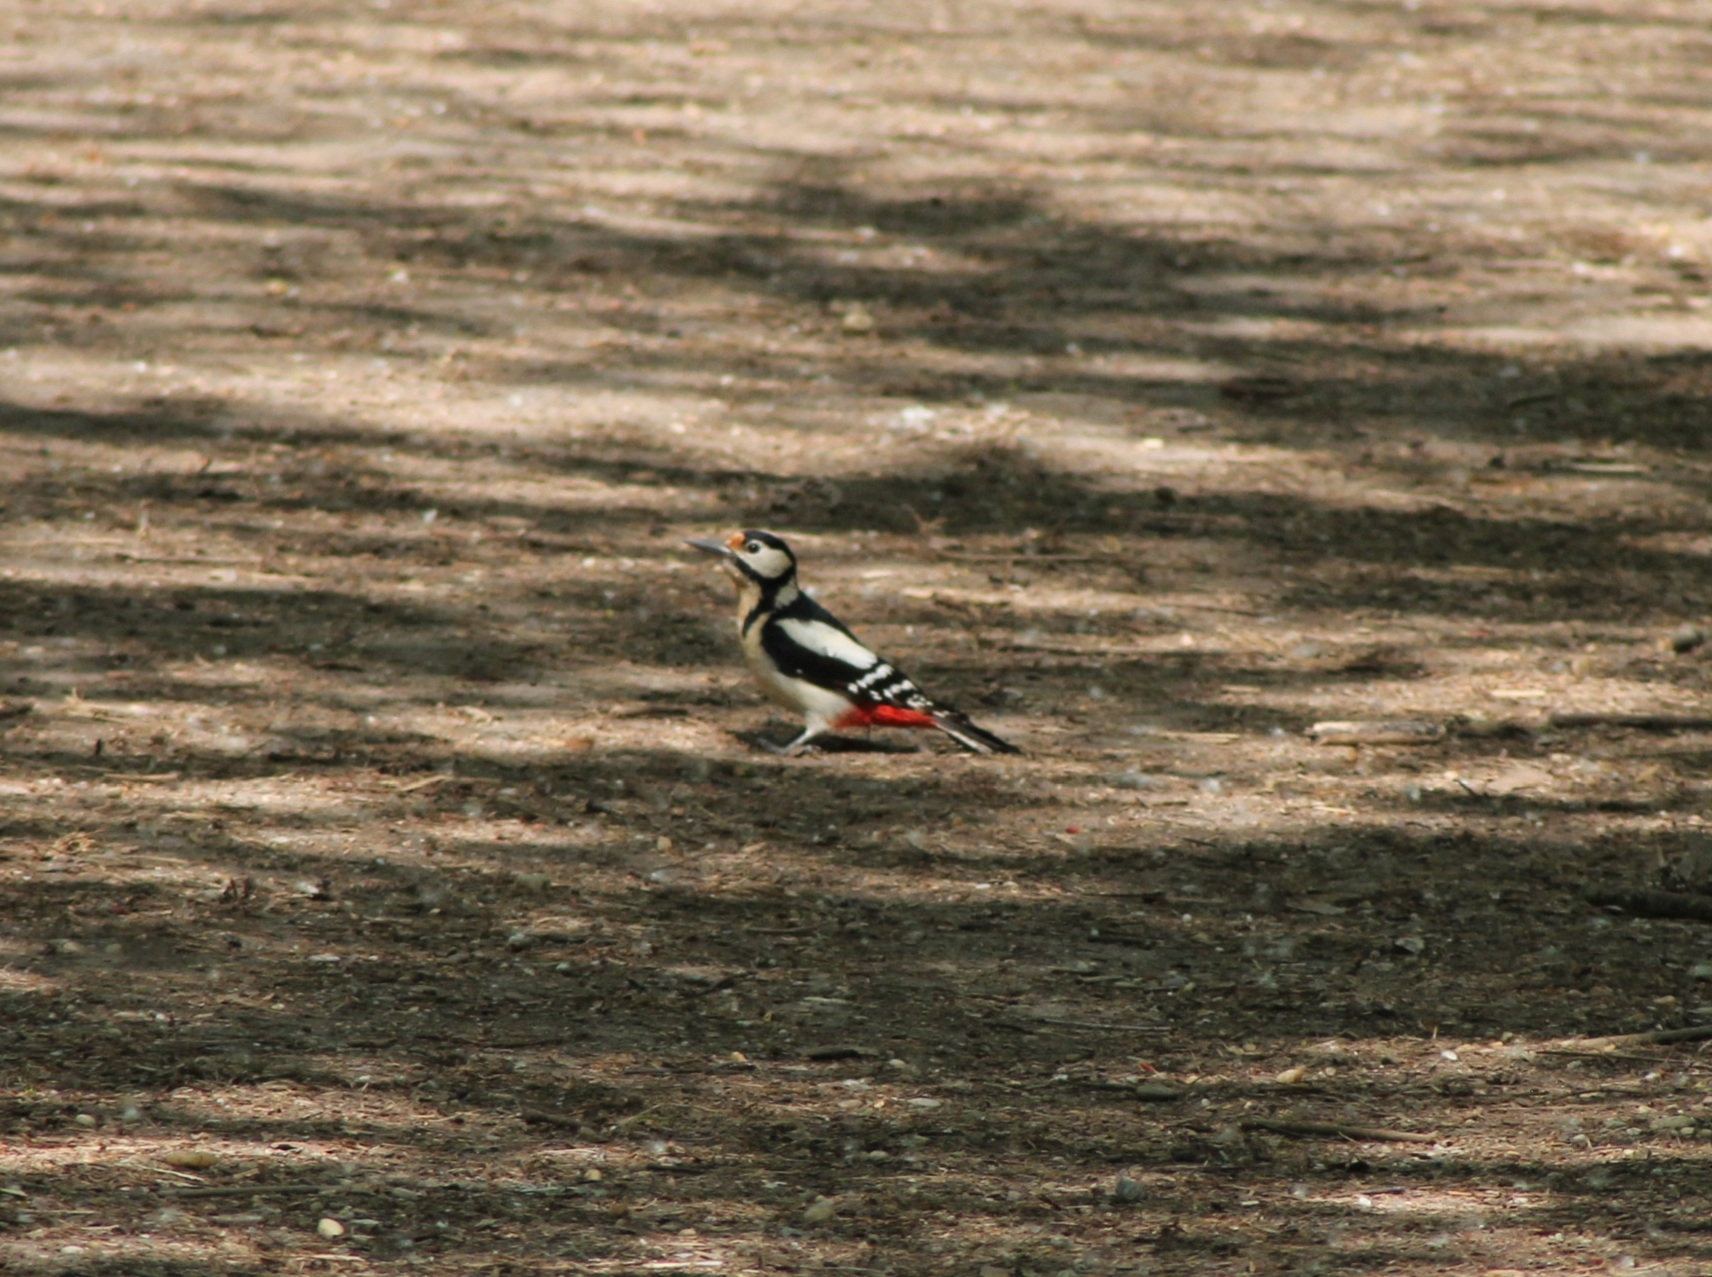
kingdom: Animalia
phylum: Chordata
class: Aves
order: Piciformes
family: Picidae
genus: Dendrocopos
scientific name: Dendrocopos major
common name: Great spotted woodpecker
